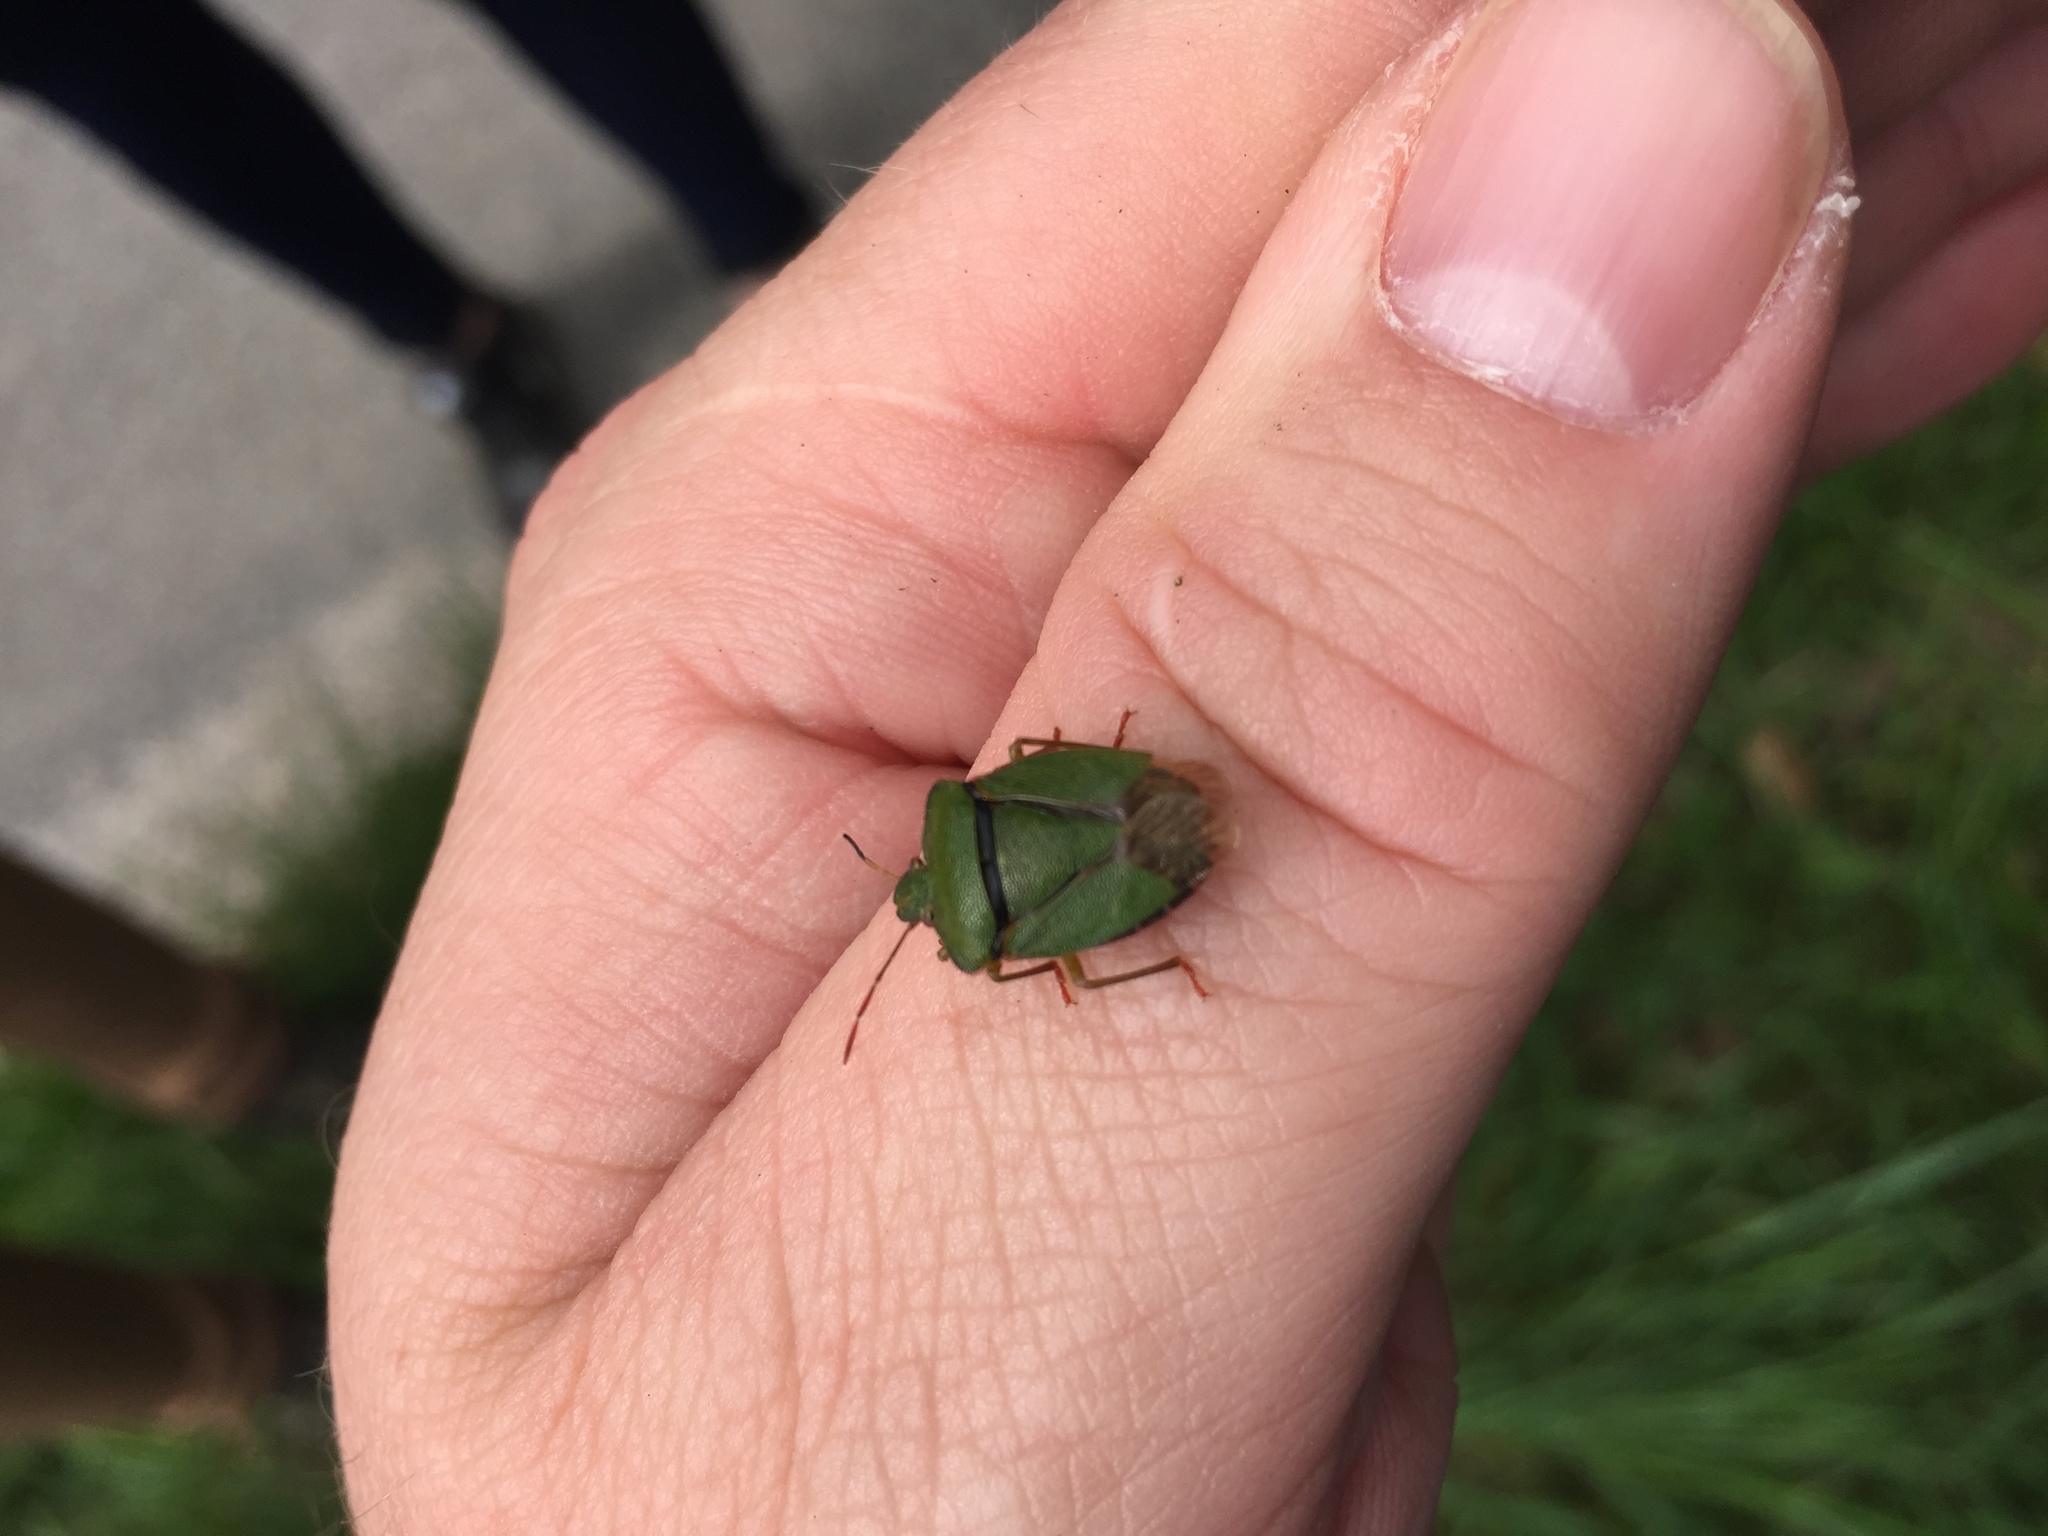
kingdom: Animalia
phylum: Arthropoda
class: Insecta
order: Hemiptera
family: Pentatomidae
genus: Palomena
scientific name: Palomena prasina
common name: Green shieldbug
